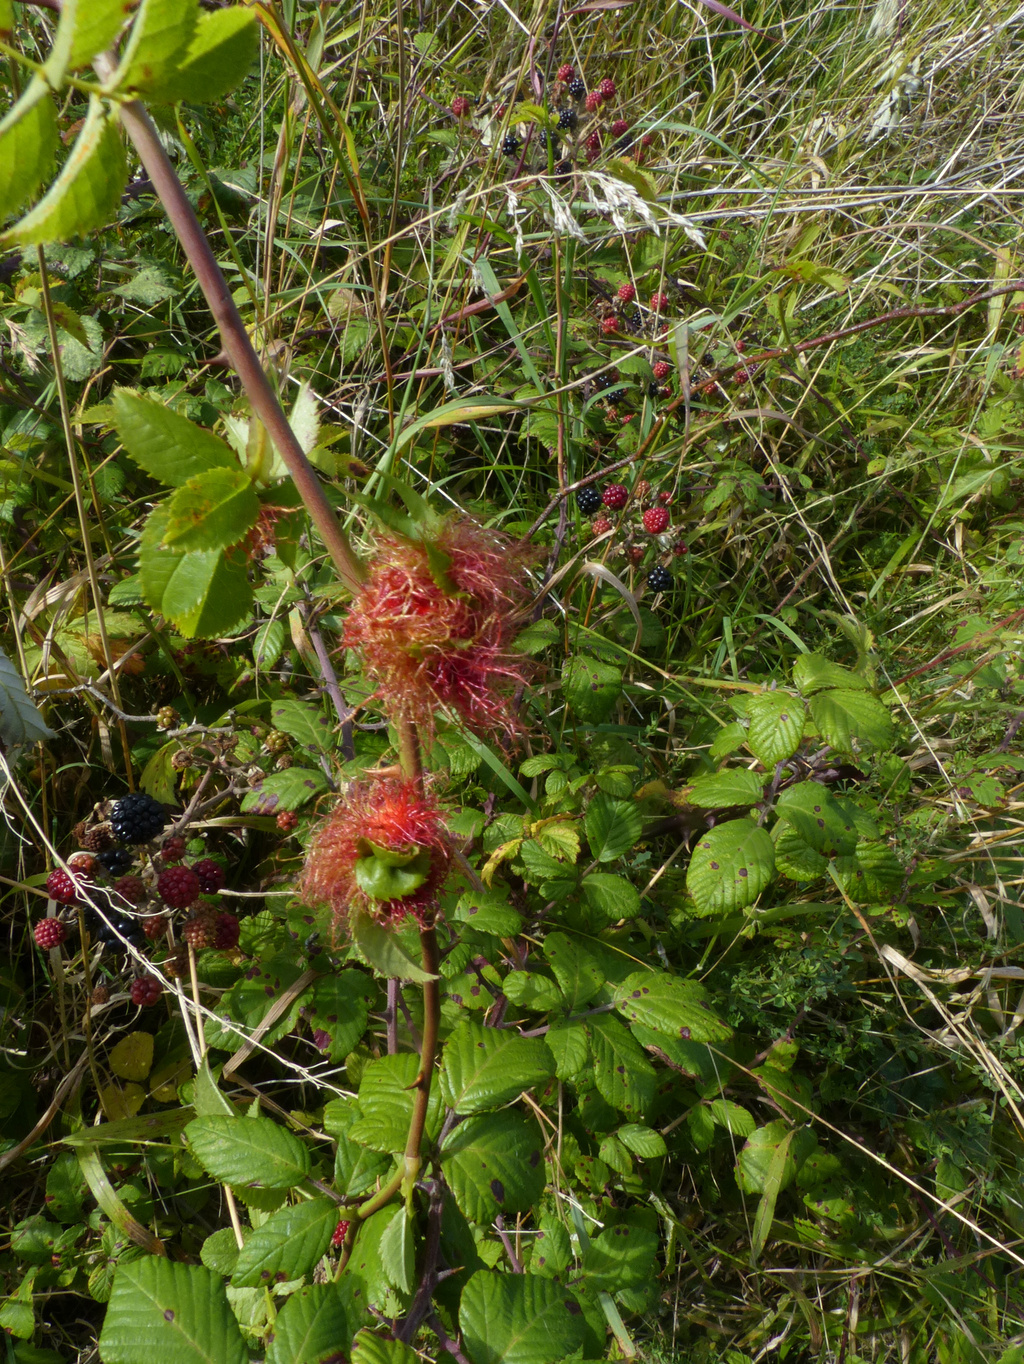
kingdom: Animalia
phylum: Arthropoda
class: Insecta
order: Hymenoptera
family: Cynipidae
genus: Diplolepis
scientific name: Diplolepis rosae
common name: Bedeguar gall
